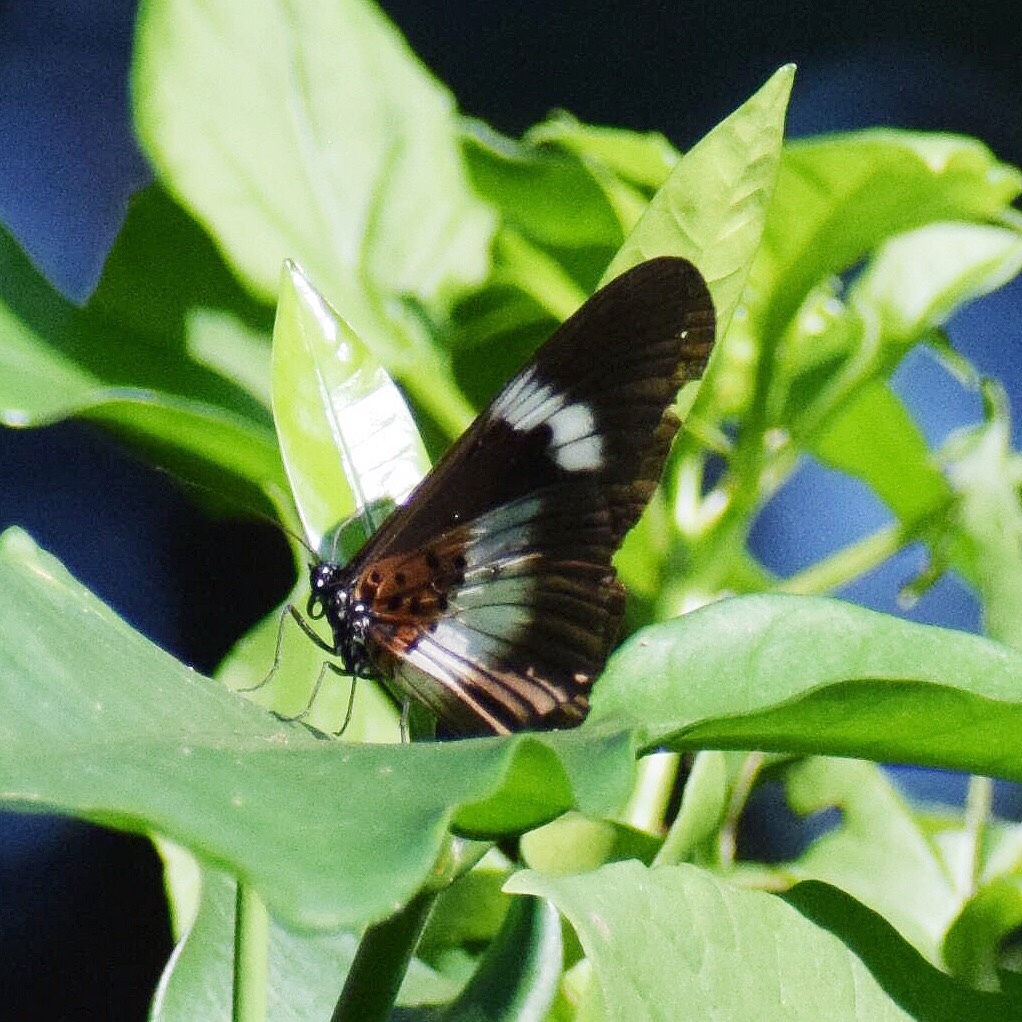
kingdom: Animalia
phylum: Arthropoda
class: Insecta
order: Lepidoptera
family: Nymphalidae
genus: Acraea
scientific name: Acraea Bematistes aganice
